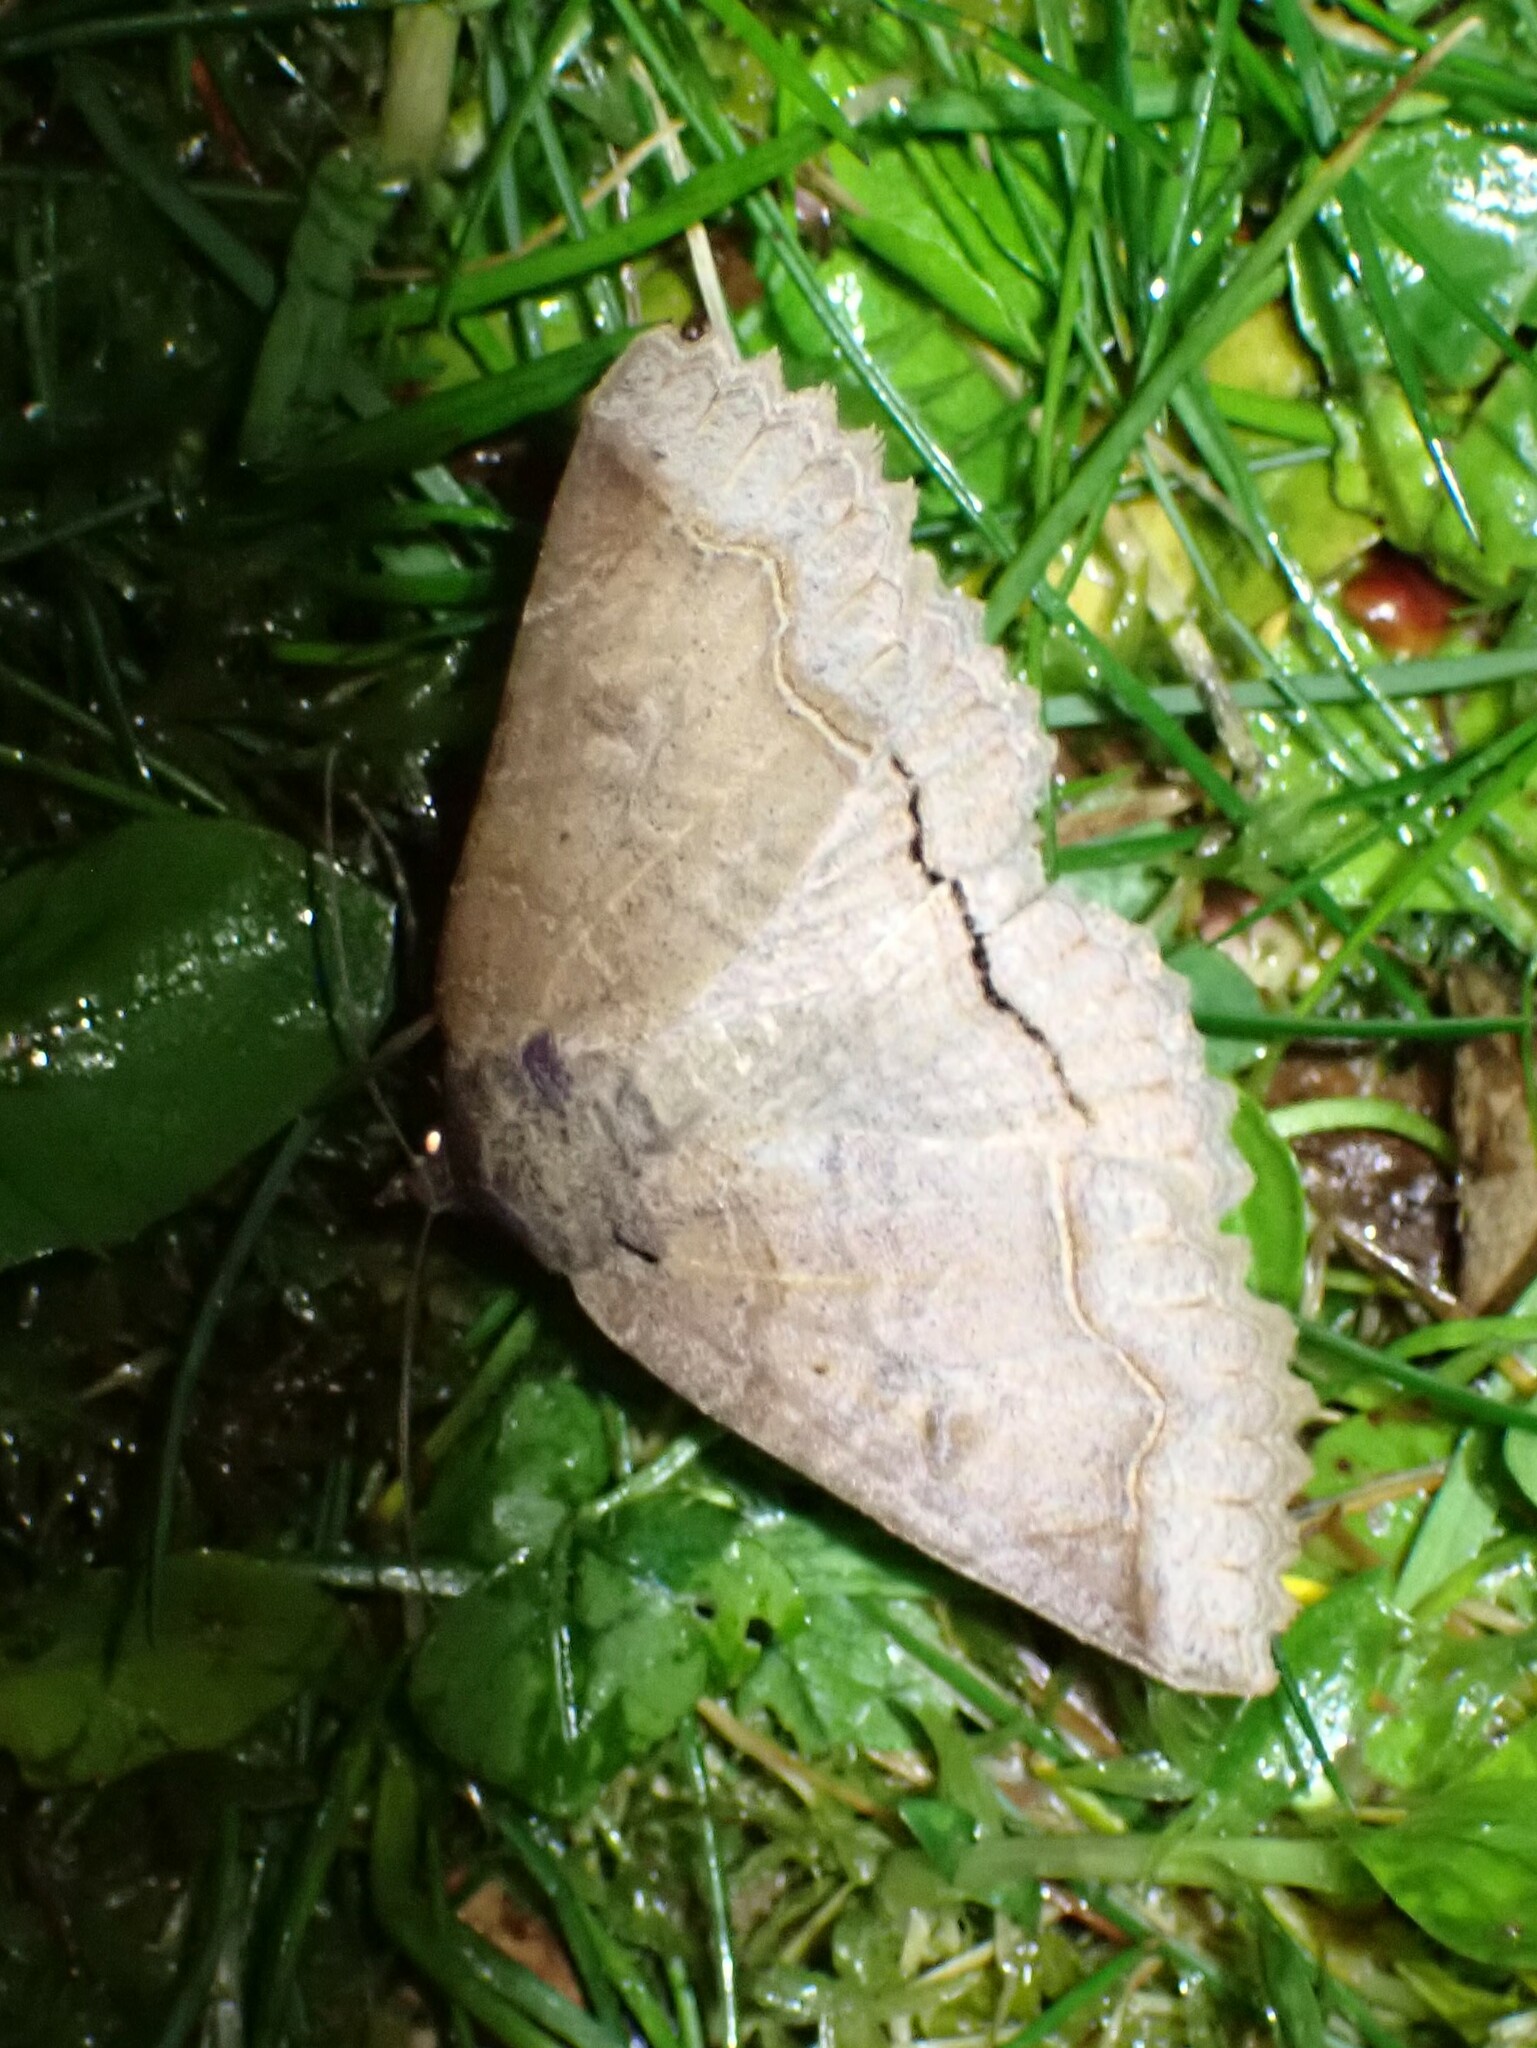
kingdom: Animalia
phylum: Arthropoda
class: Insecta
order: Lepidoptera
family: Erebidae
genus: Zale
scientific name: Zale unilineata
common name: One-lined zale moth
